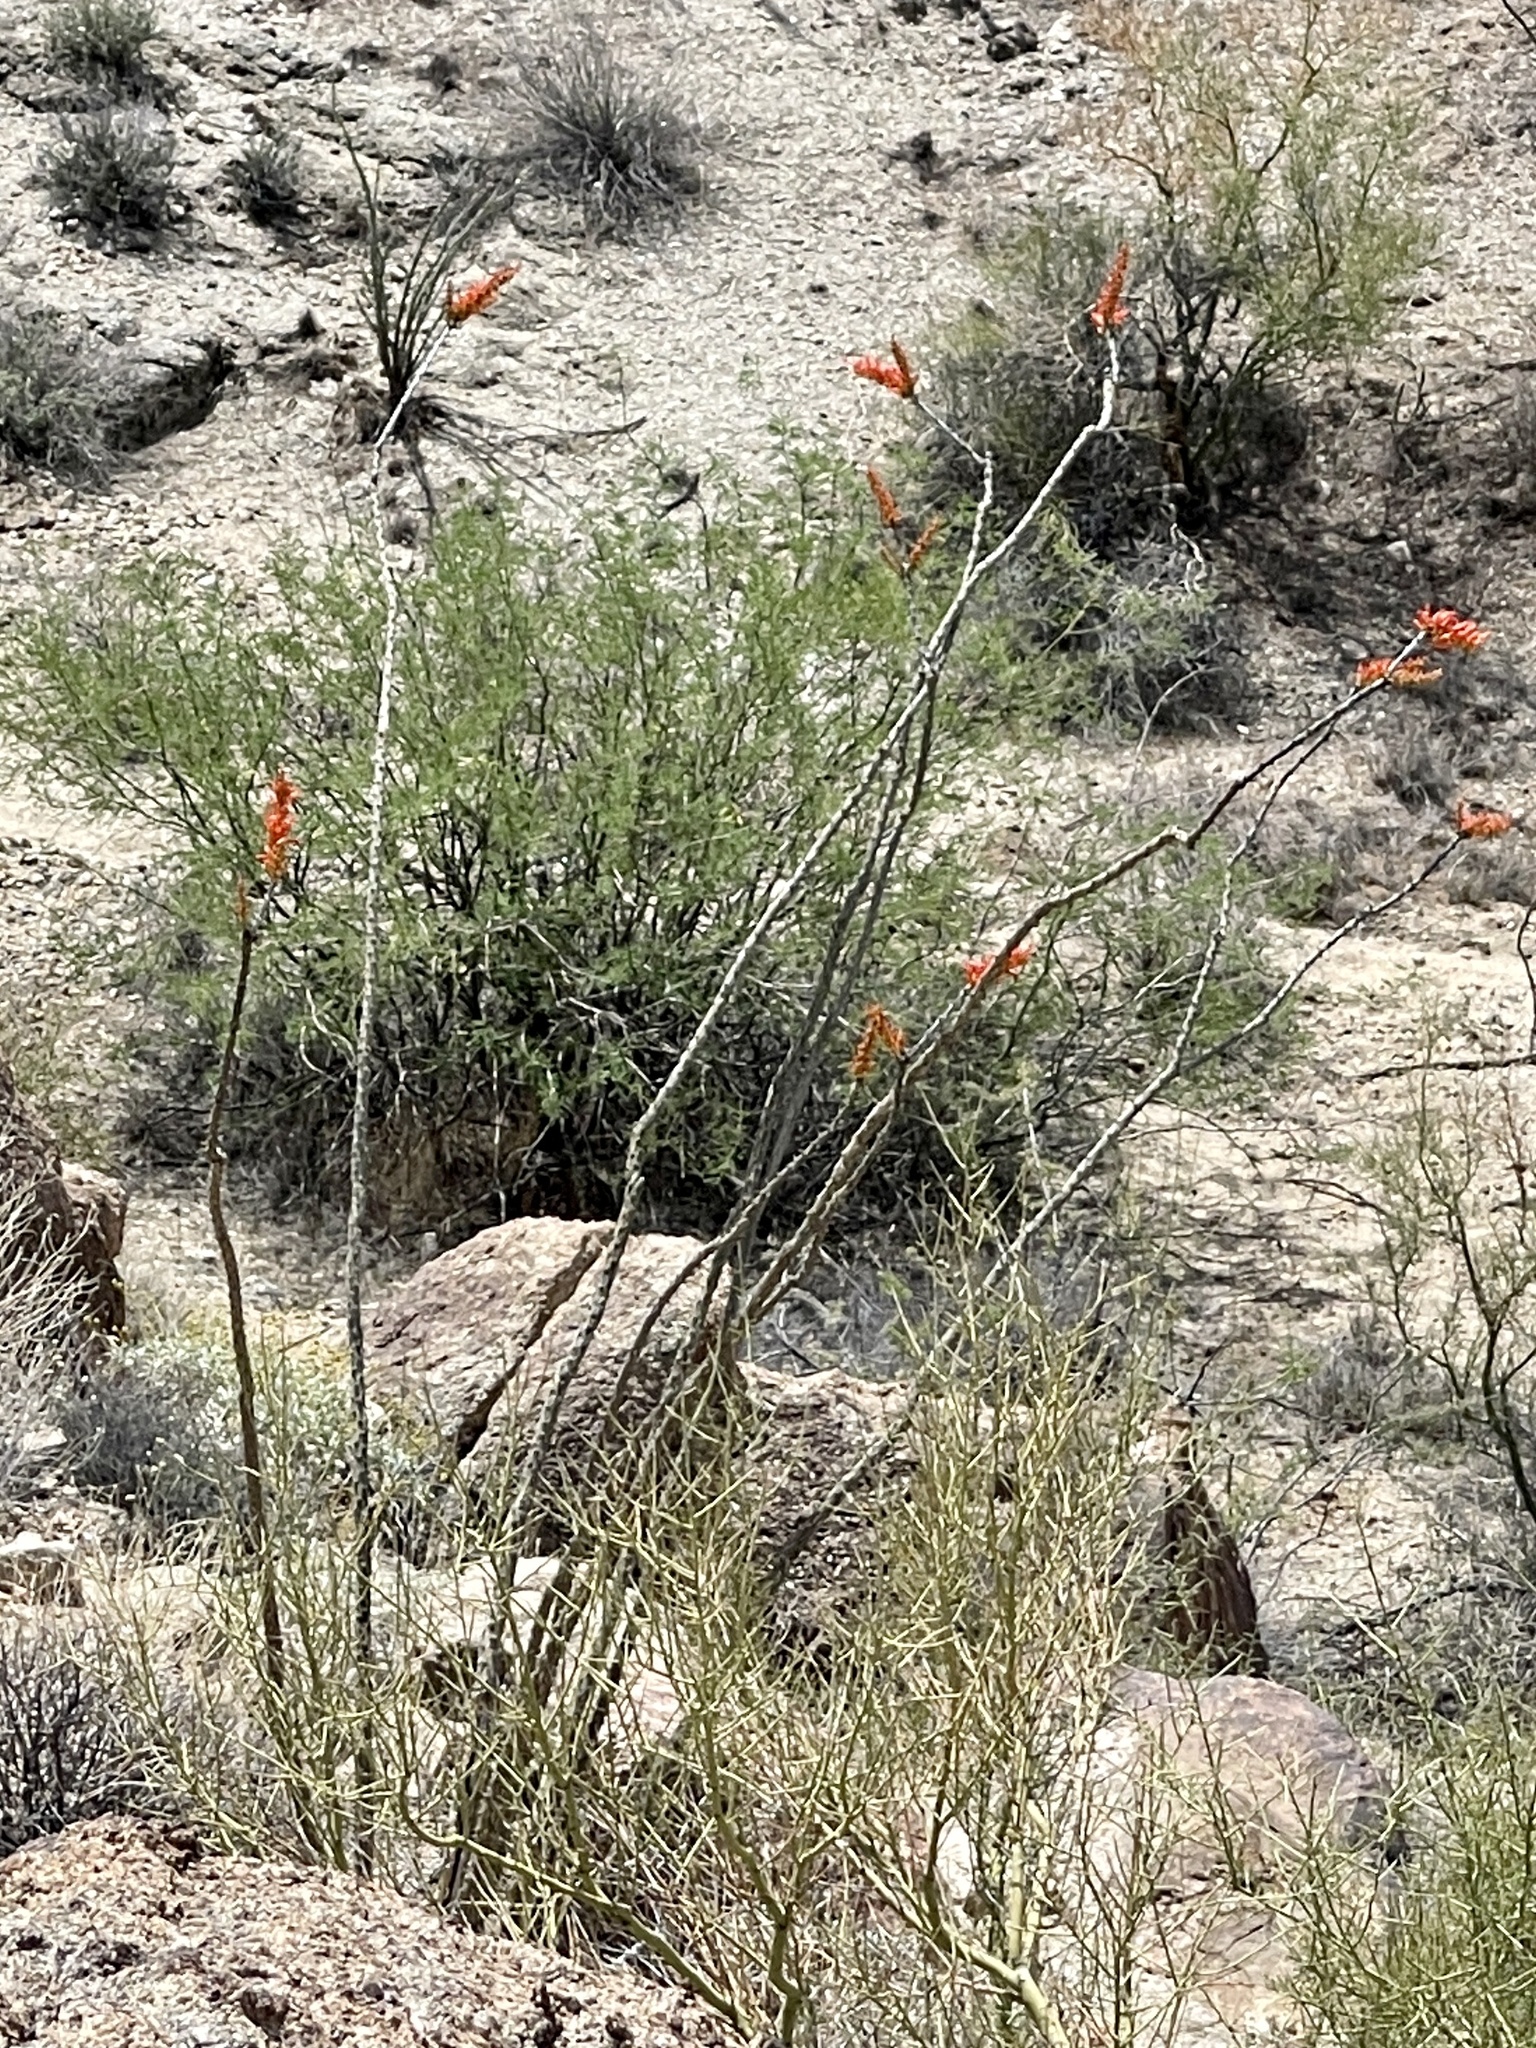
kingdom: Plantae
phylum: Tracheophyta
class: Magnoliopsida
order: Ericales
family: Fouquieriaceae
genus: Fouquieria
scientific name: Fouquieria splendens
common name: Vine-cactus
